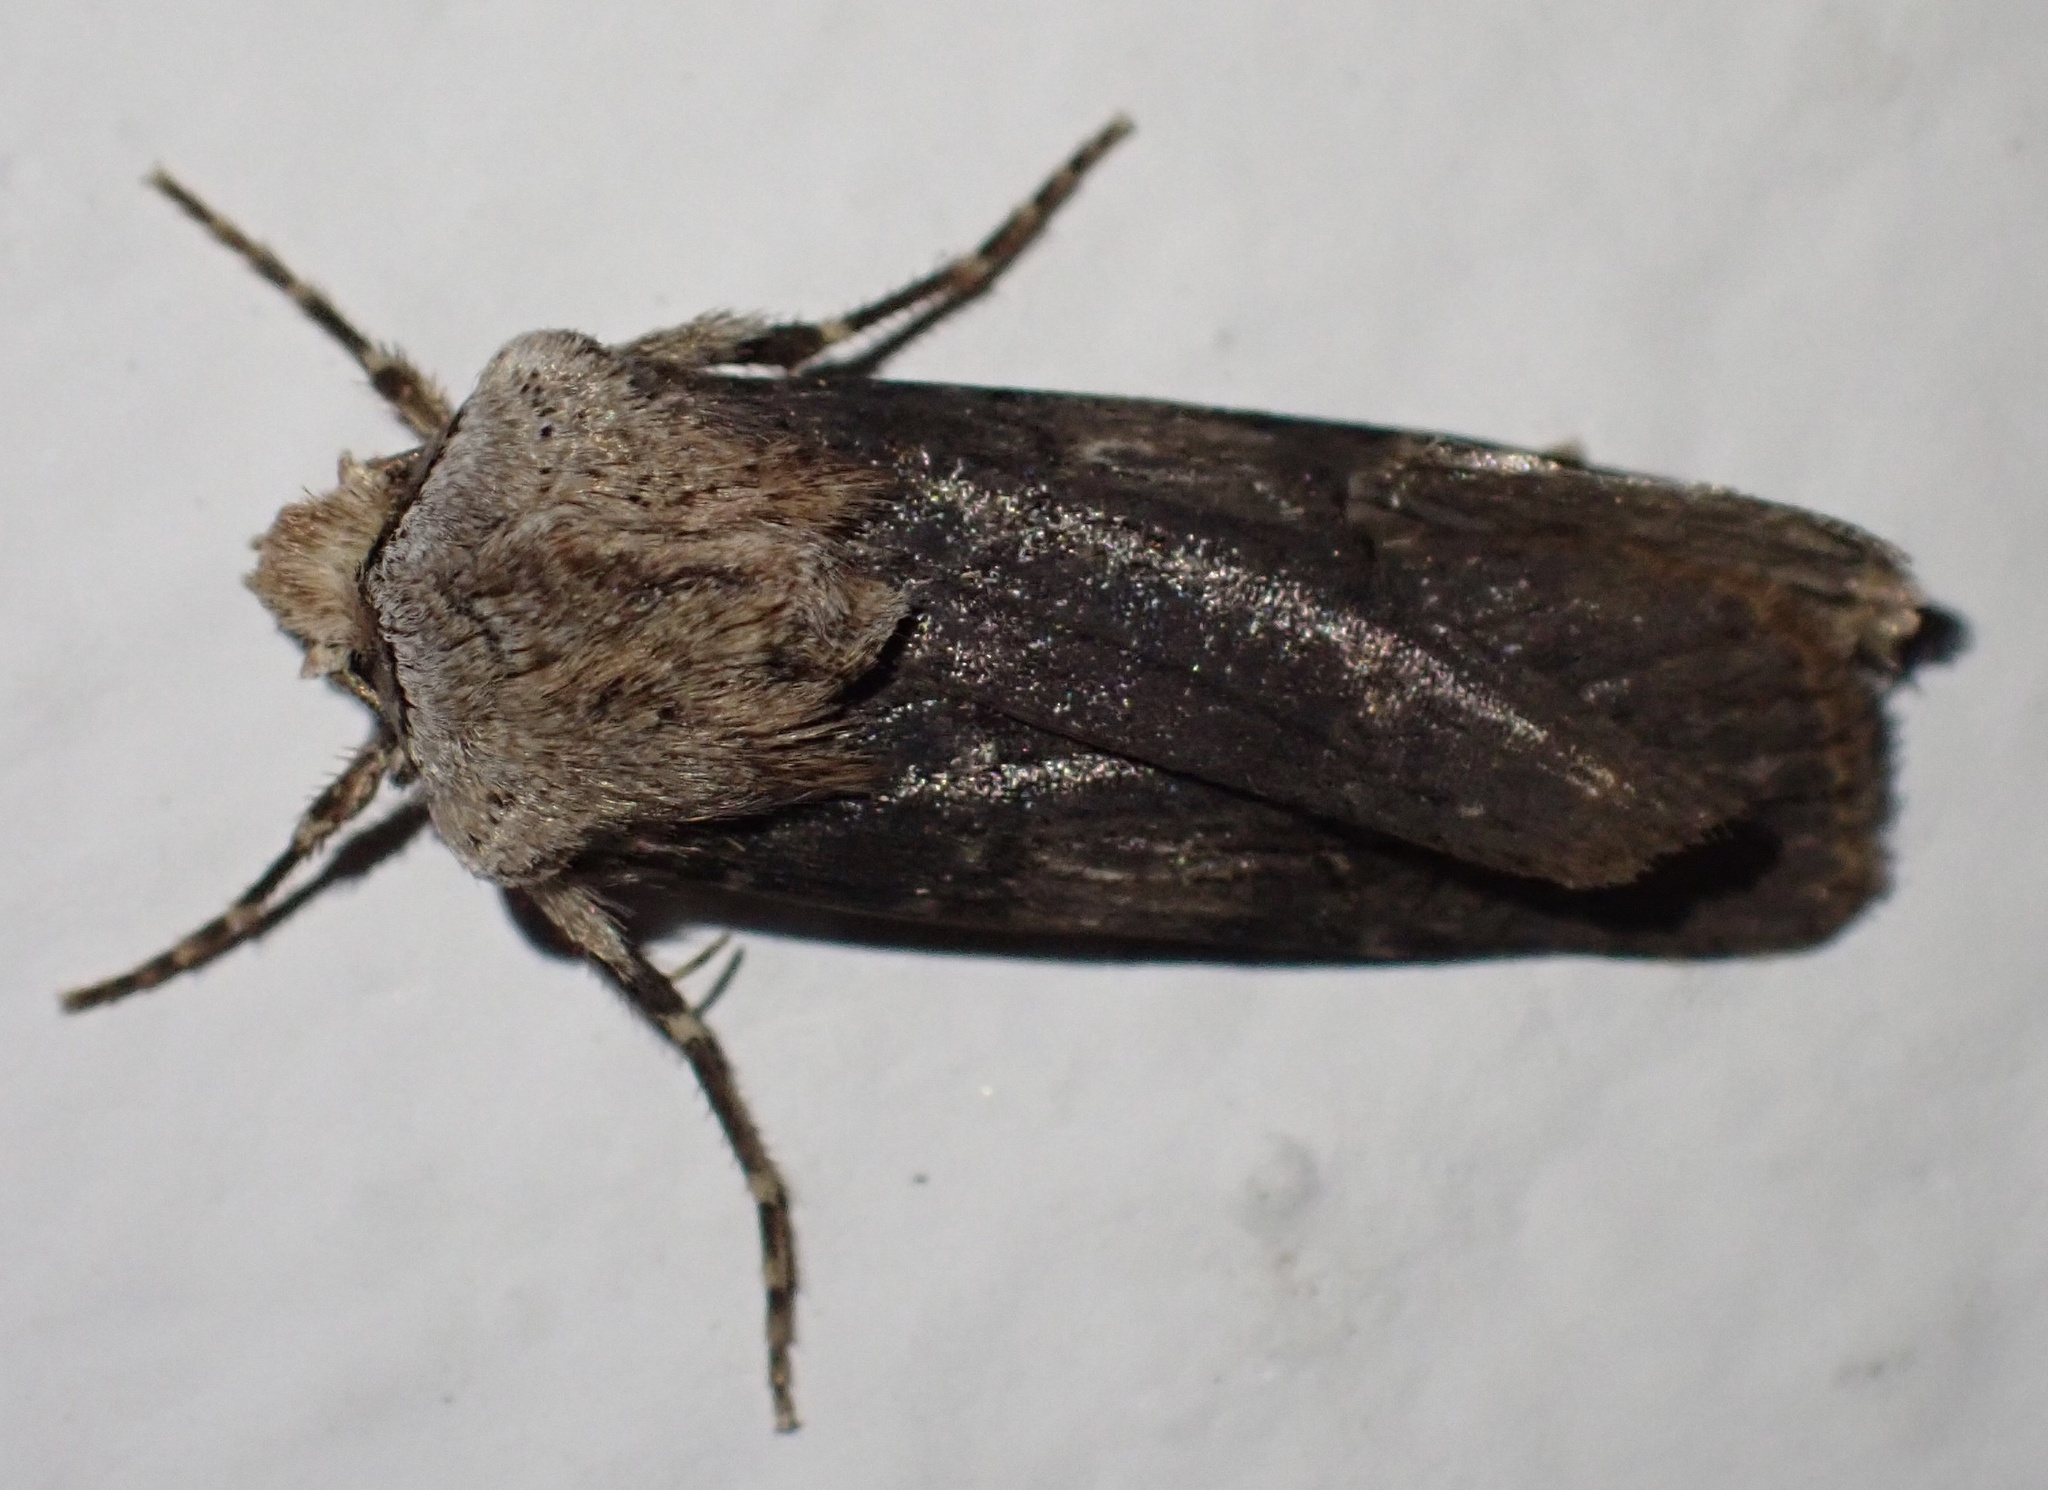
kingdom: Animalia
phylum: Arthropoda
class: Insecta
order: Lepidoptera
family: Noctuidae
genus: Agrotis
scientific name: Agrotis puta
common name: Shuttle-shaped dart
